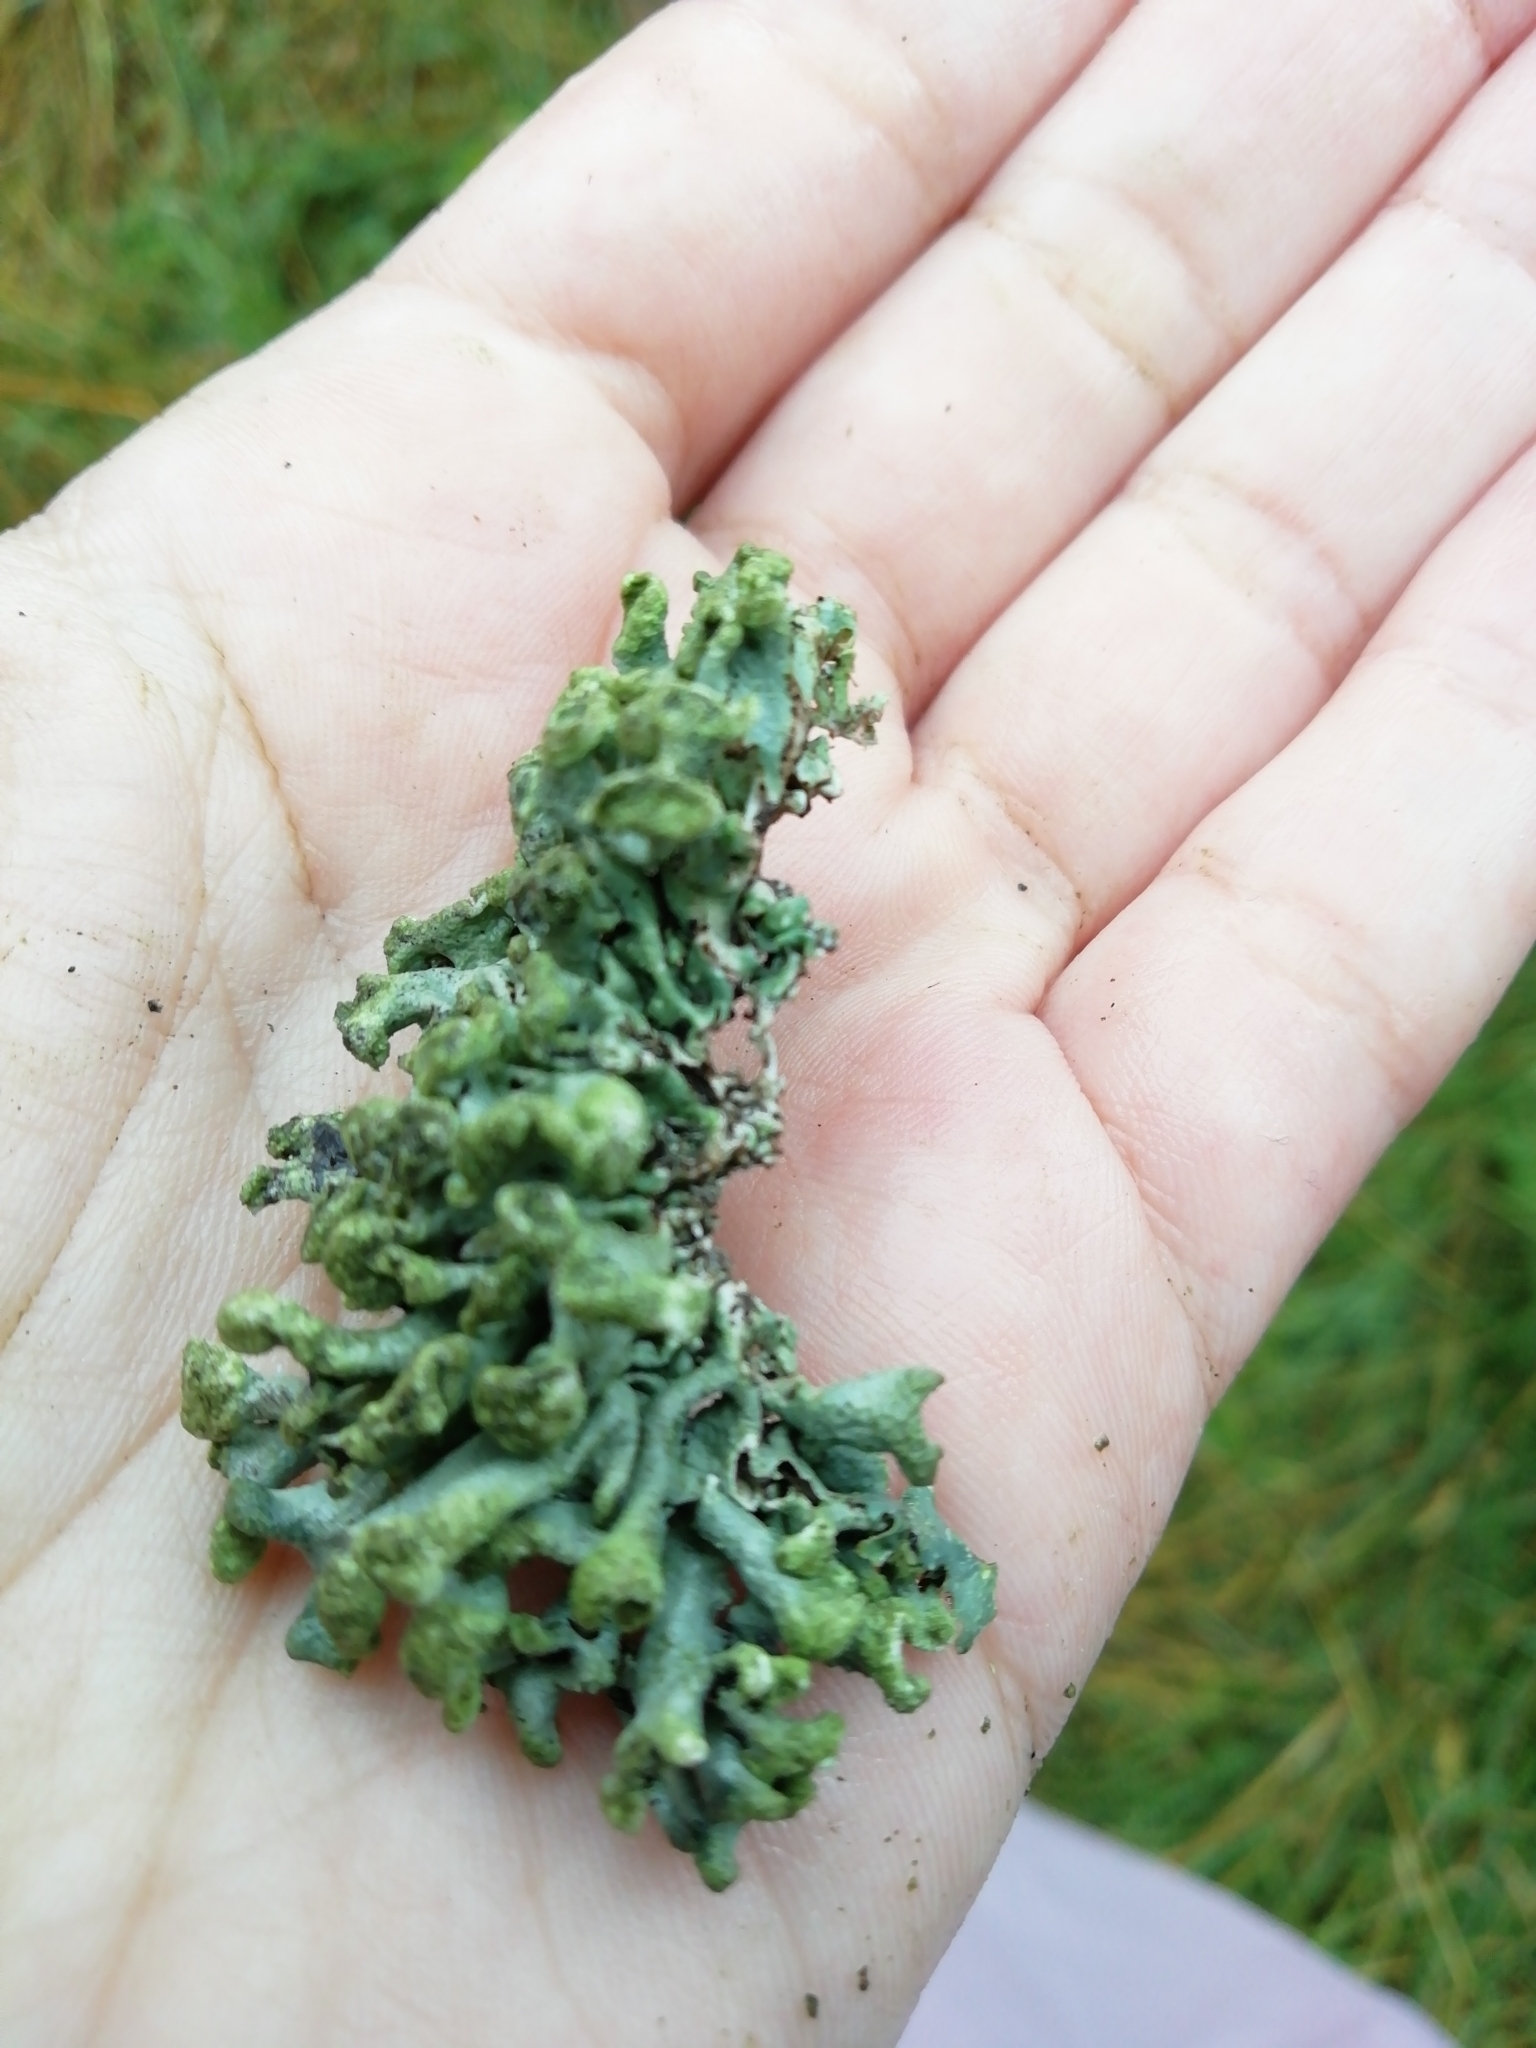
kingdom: Fungi
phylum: Ascomycota
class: Lecanoromycetes
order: Lecanorales
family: Parmeliaceae
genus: Hypogymnia
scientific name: Hypogymnia tubulosa
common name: Powder-headed tube lichen
